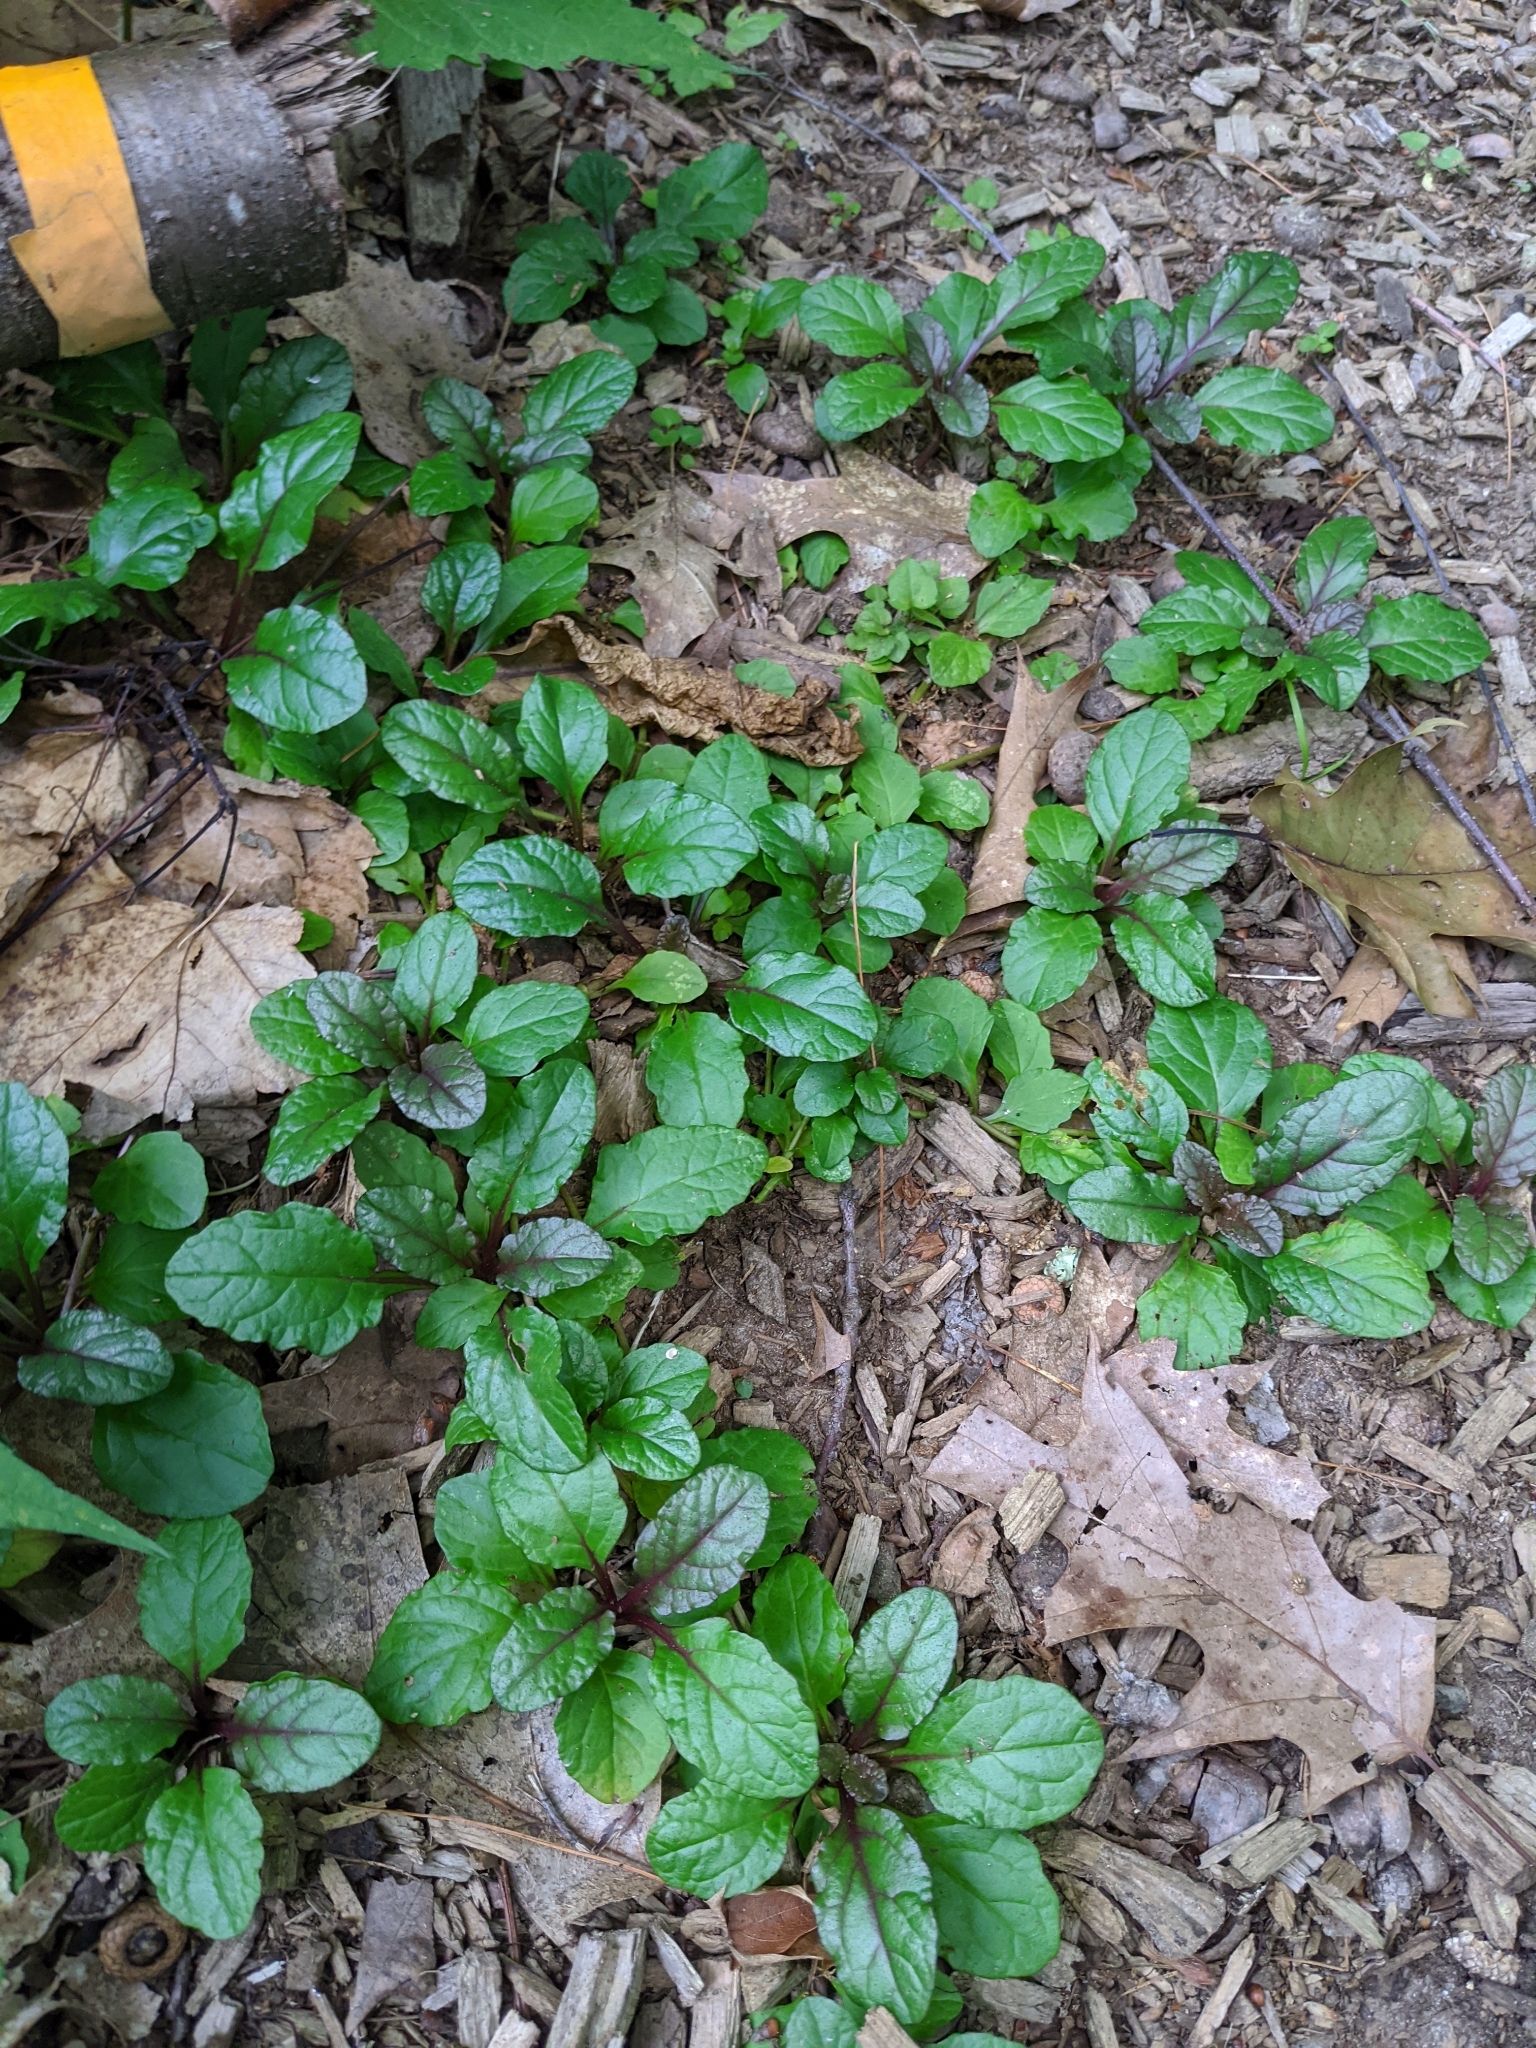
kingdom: Plantae
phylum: Tracheophyta
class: Magnoliopsida
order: Lamiales
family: Lamiaceae
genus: Ajuga
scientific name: Ajuga reptans
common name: Bugle
